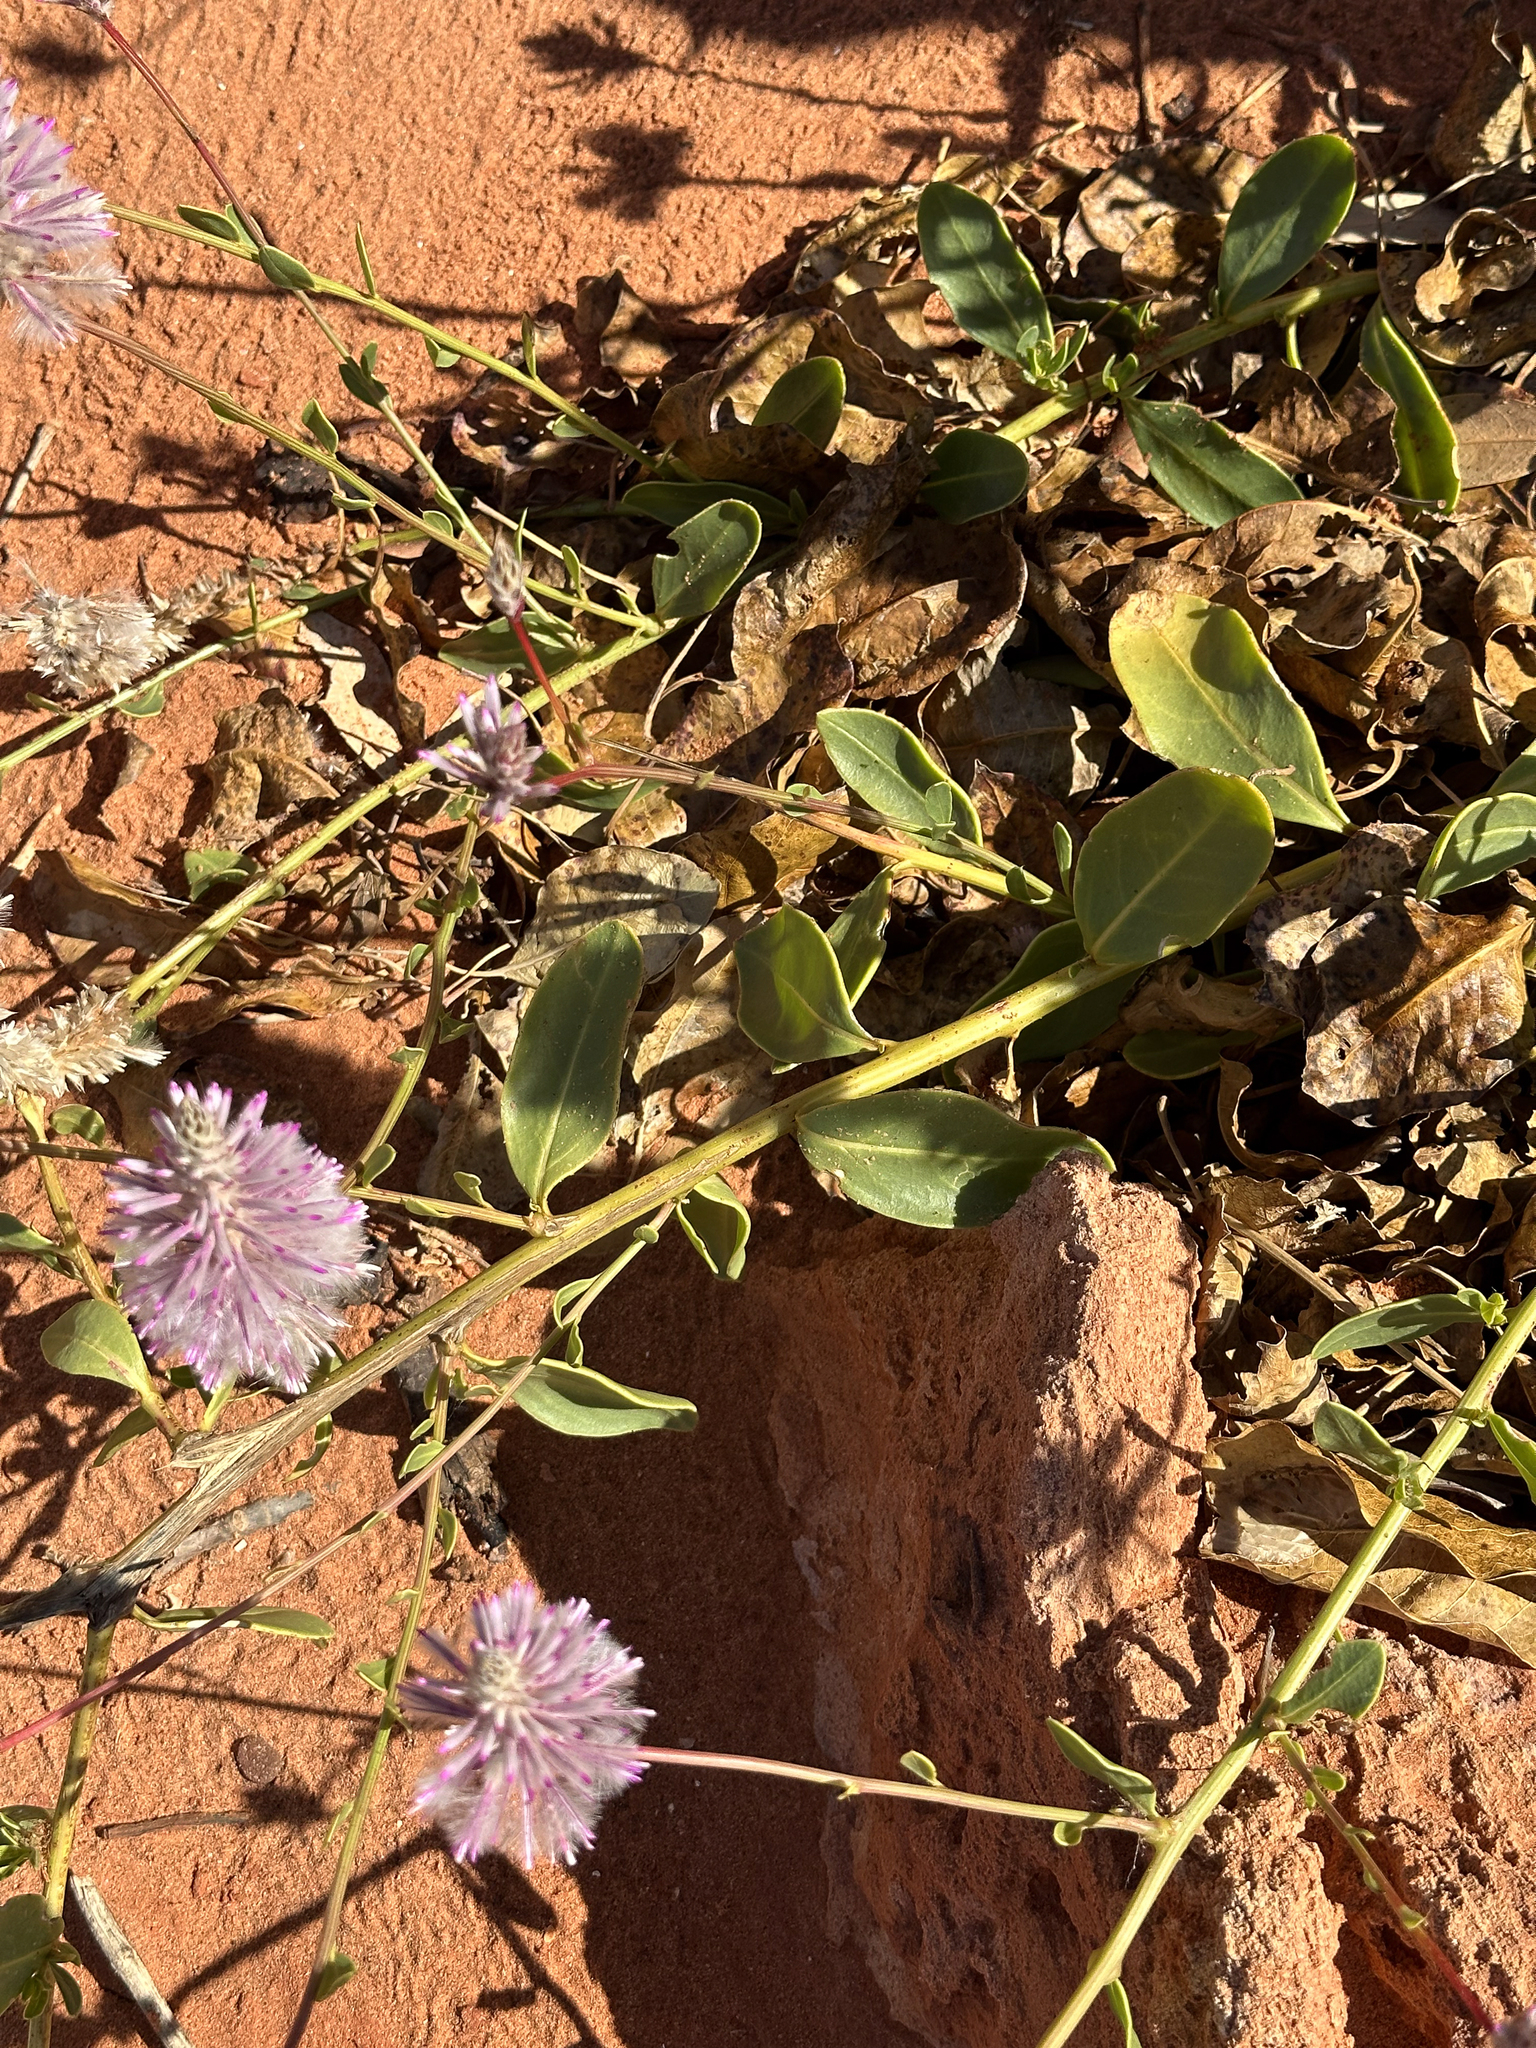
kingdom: Plantae
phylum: Tracheophyta
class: Magnoliopsida
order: Caryophyllales
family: Amaranthaceae
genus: Ptilotus
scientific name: Ptilotus exaltatus
